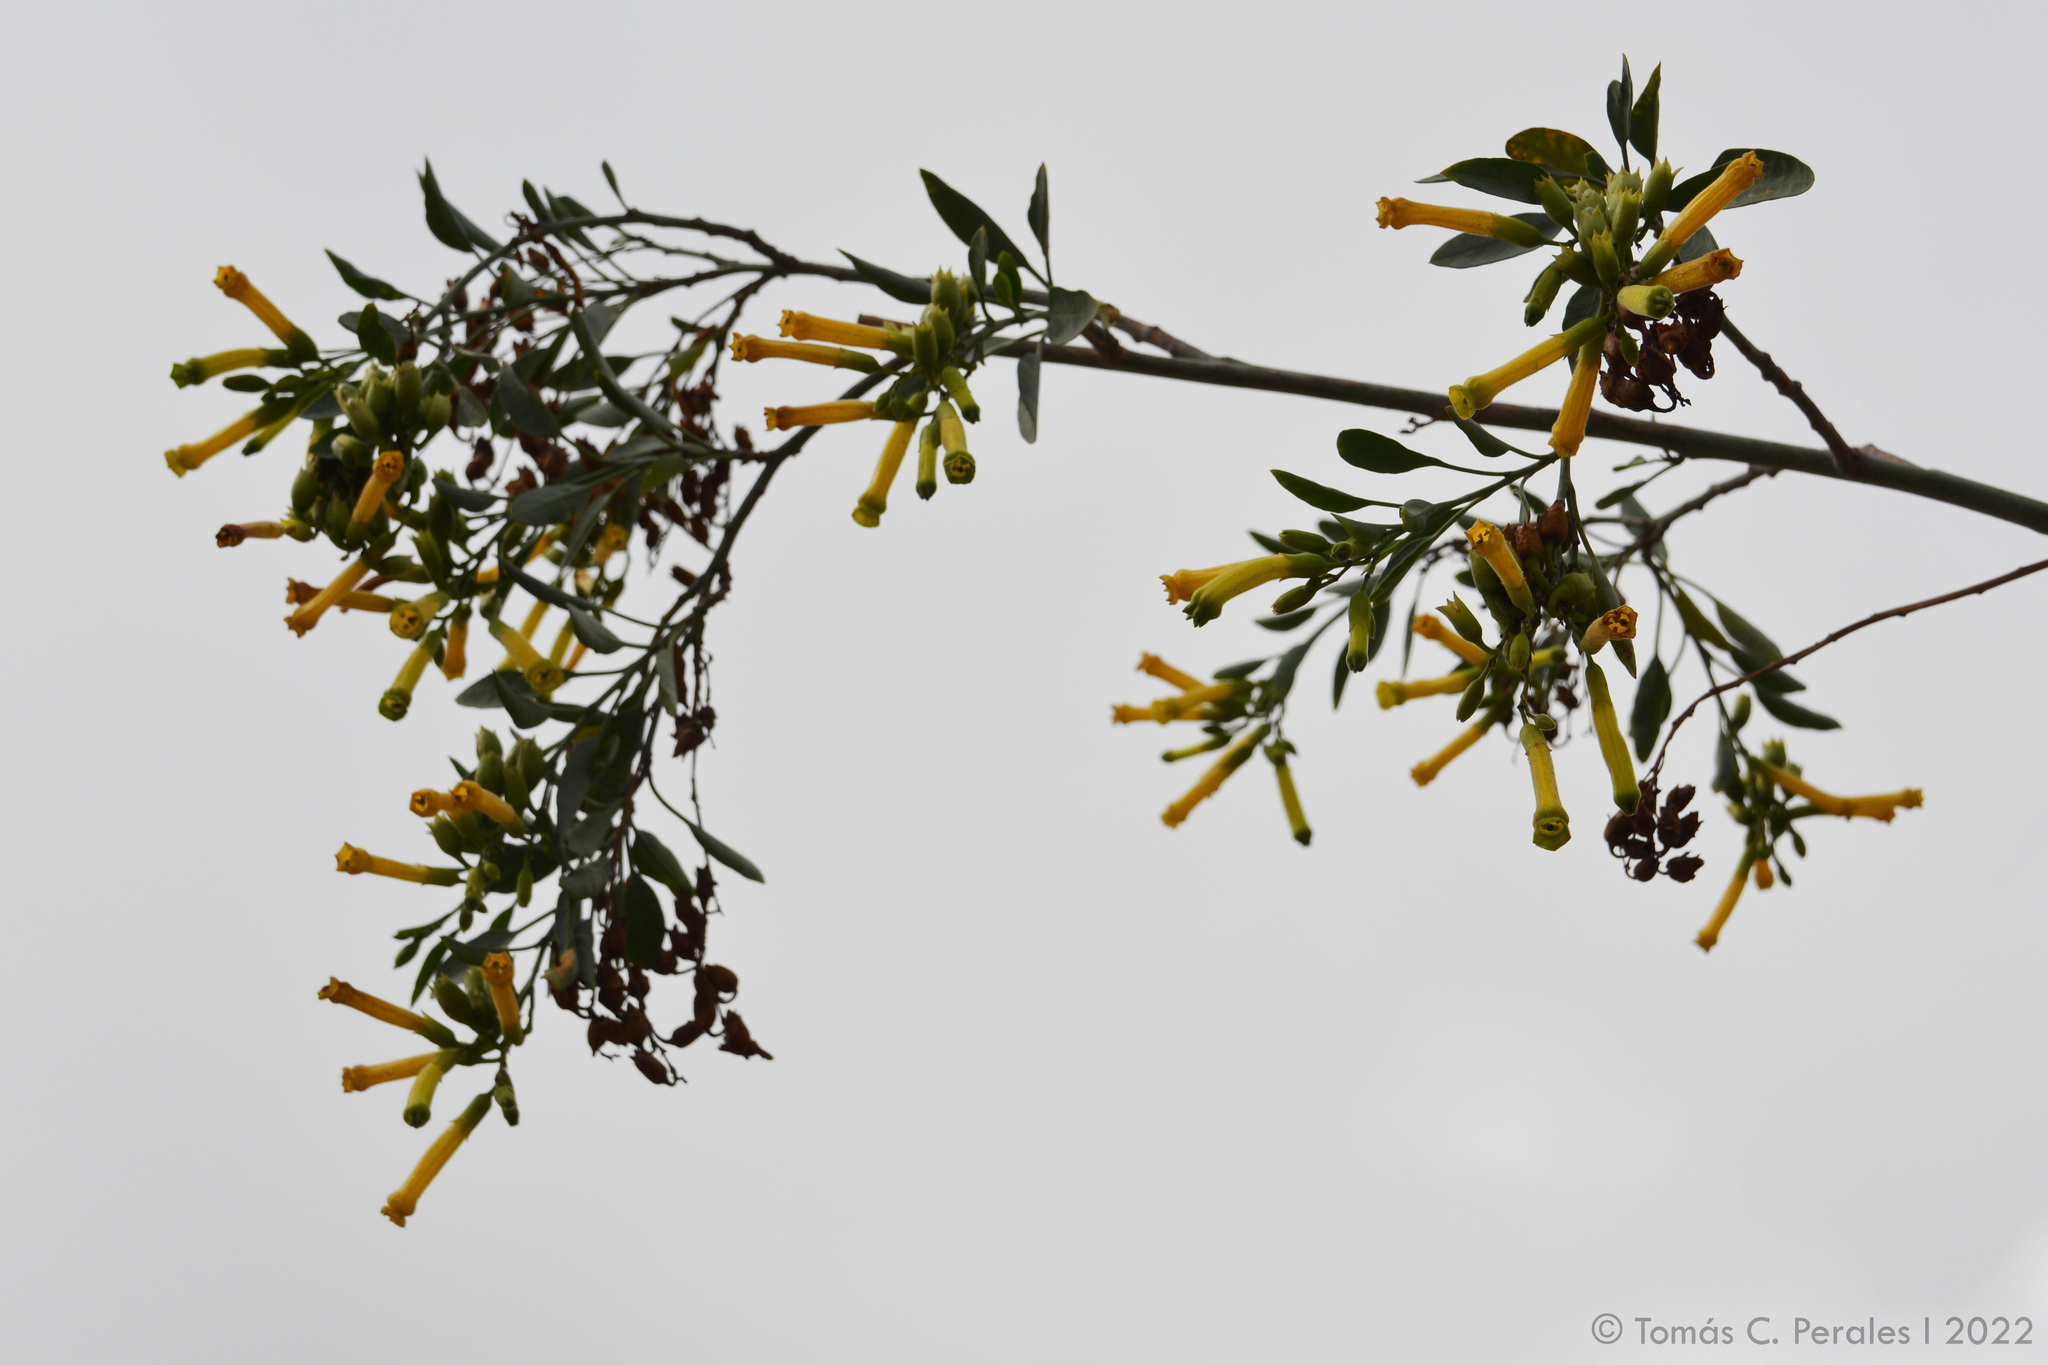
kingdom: Plantae
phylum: Tracheophyta
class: Magnoliopsida
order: Solanales
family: Solanaceae
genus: Nicotiana
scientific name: Nicotiana glauca
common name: Tree tobacco
